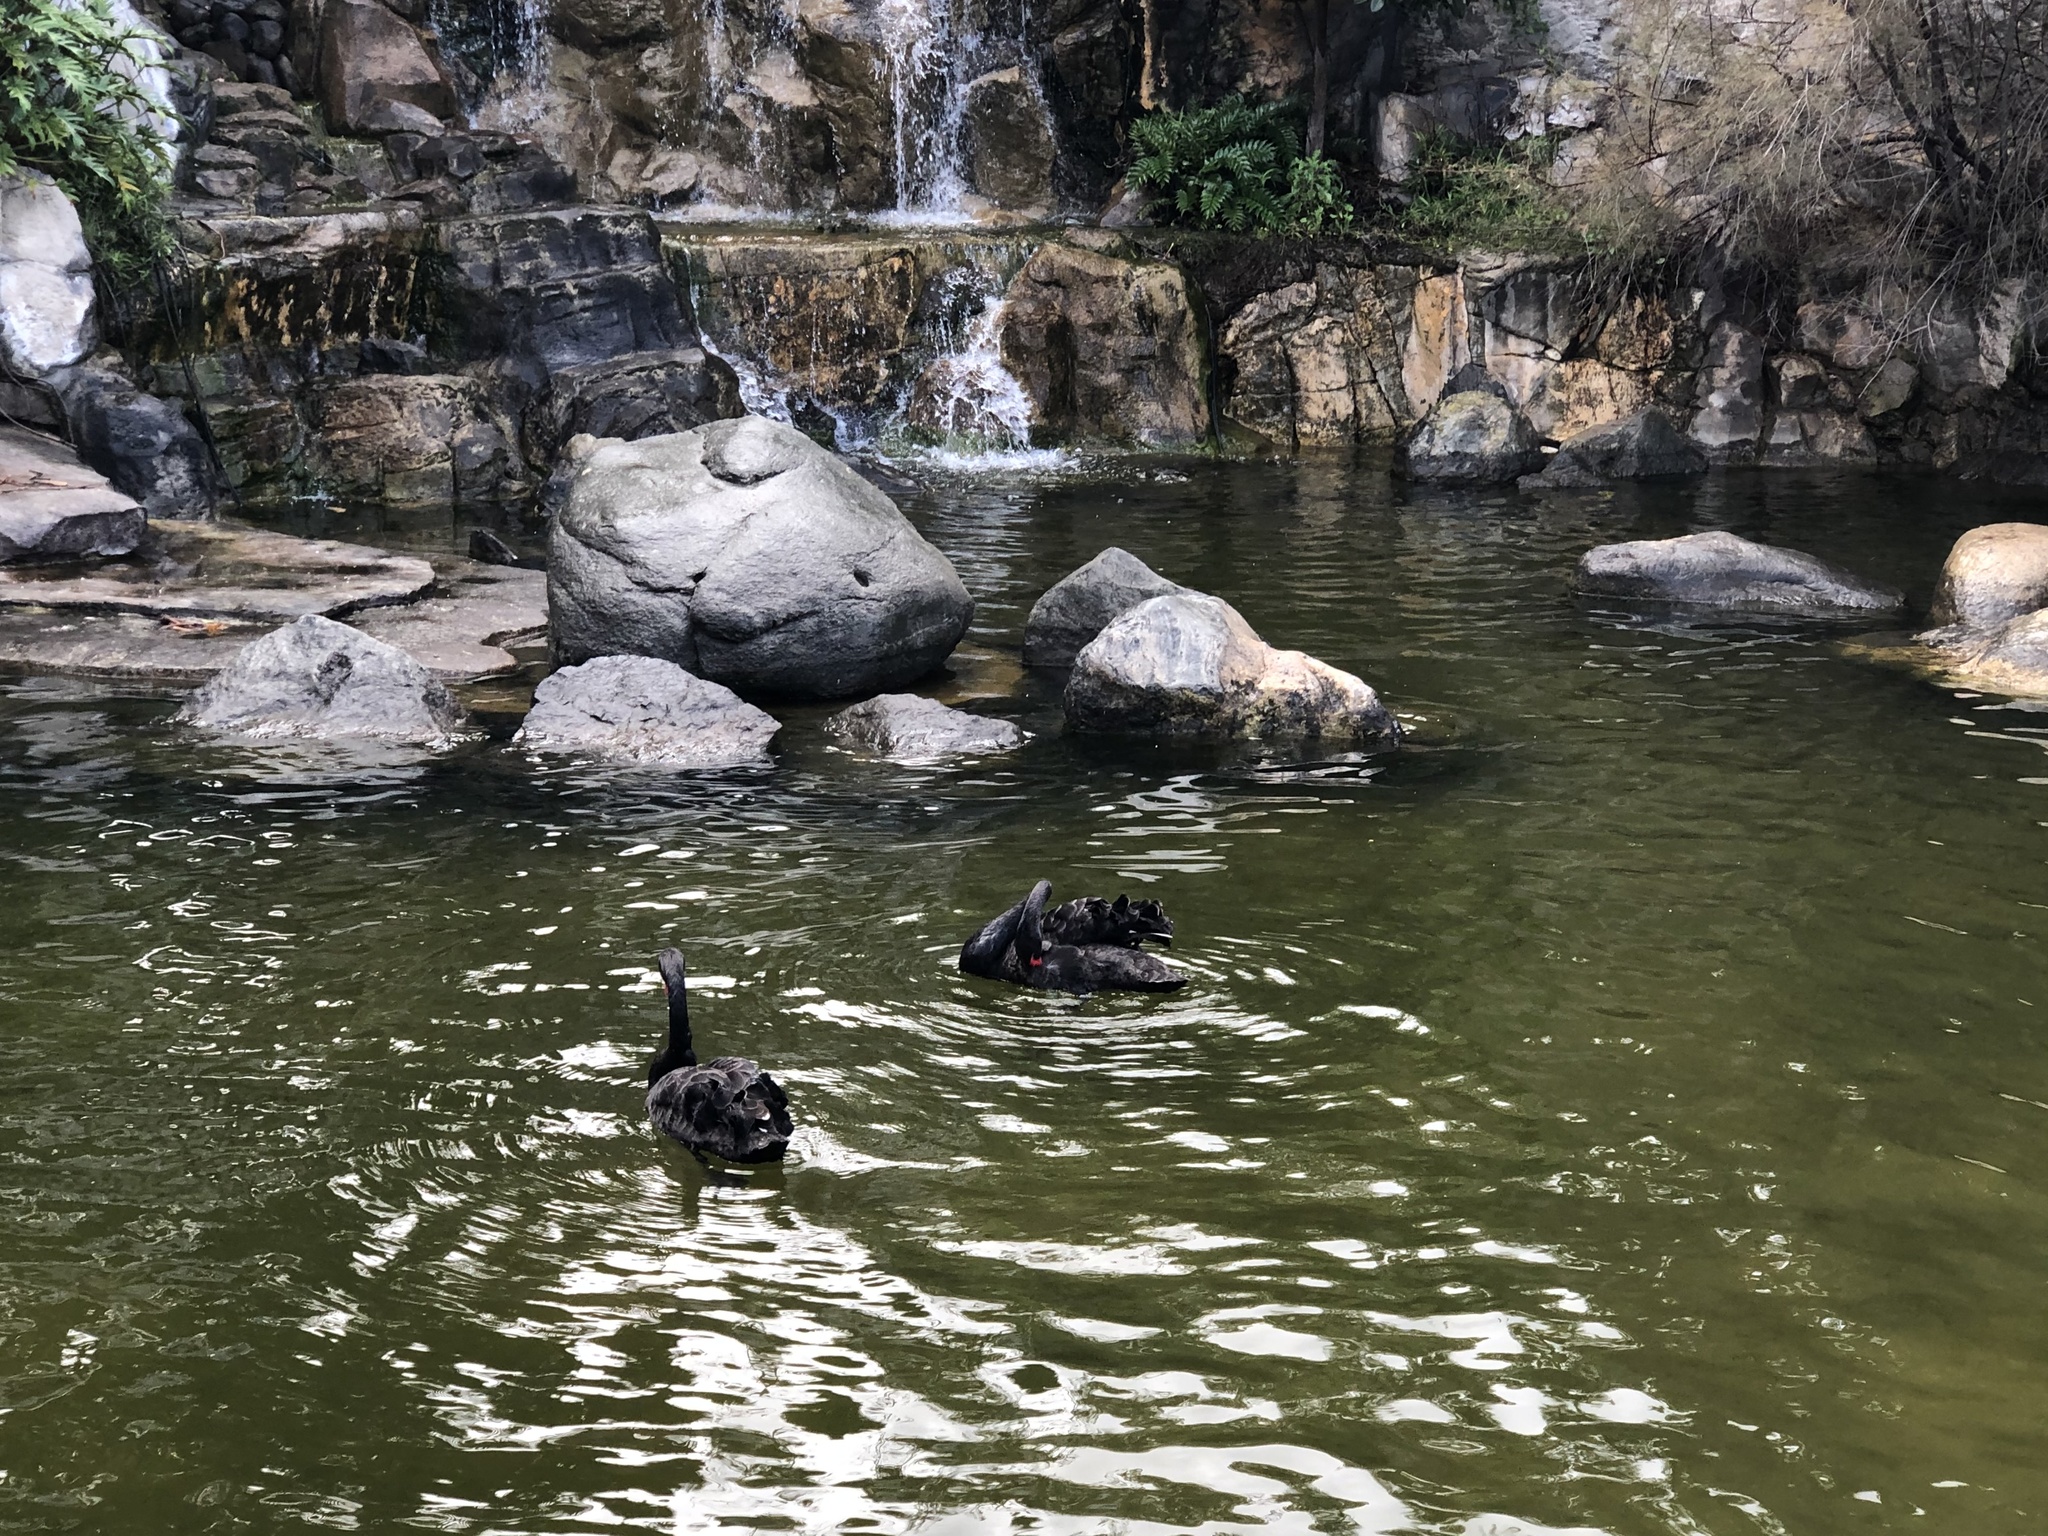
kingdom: Animalia
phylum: Chordata
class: Aves
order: Anseriformes
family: Anatidae
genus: Cygnus
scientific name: Cygnus atratus
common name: Black swan
